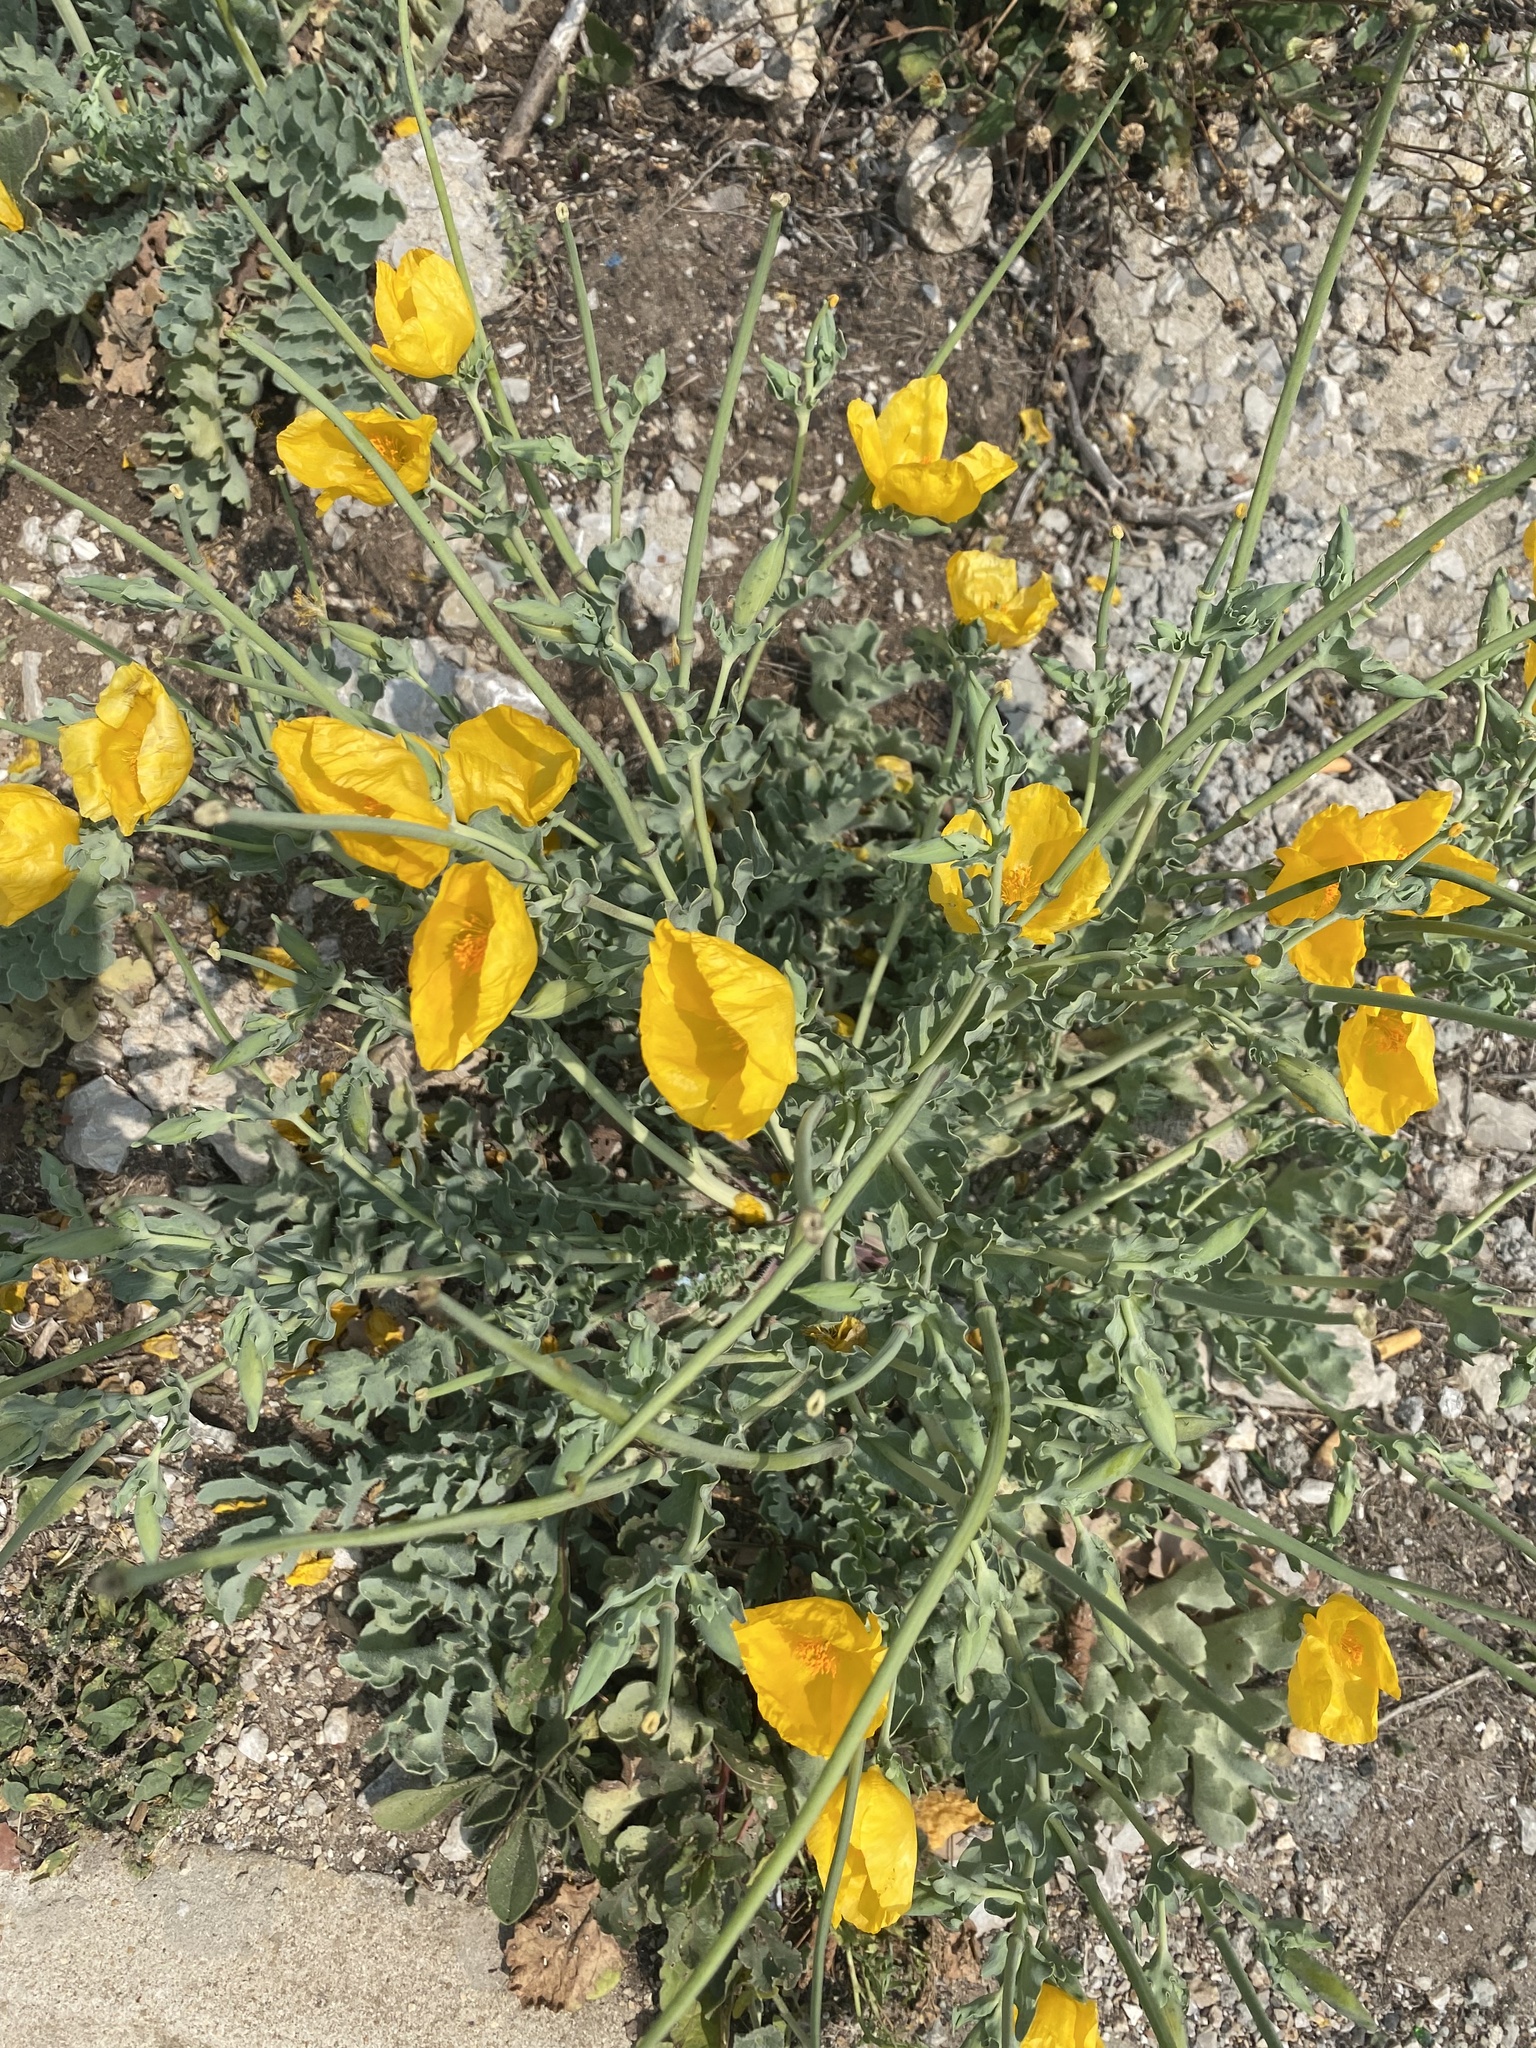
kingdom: Plantae
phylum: Tracheophyta
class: Magnoliopsida
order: Ranunculales
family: Papaveraceae
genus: Glaucium
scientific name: Glaucium flavum
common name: Yellow horned-poppy
